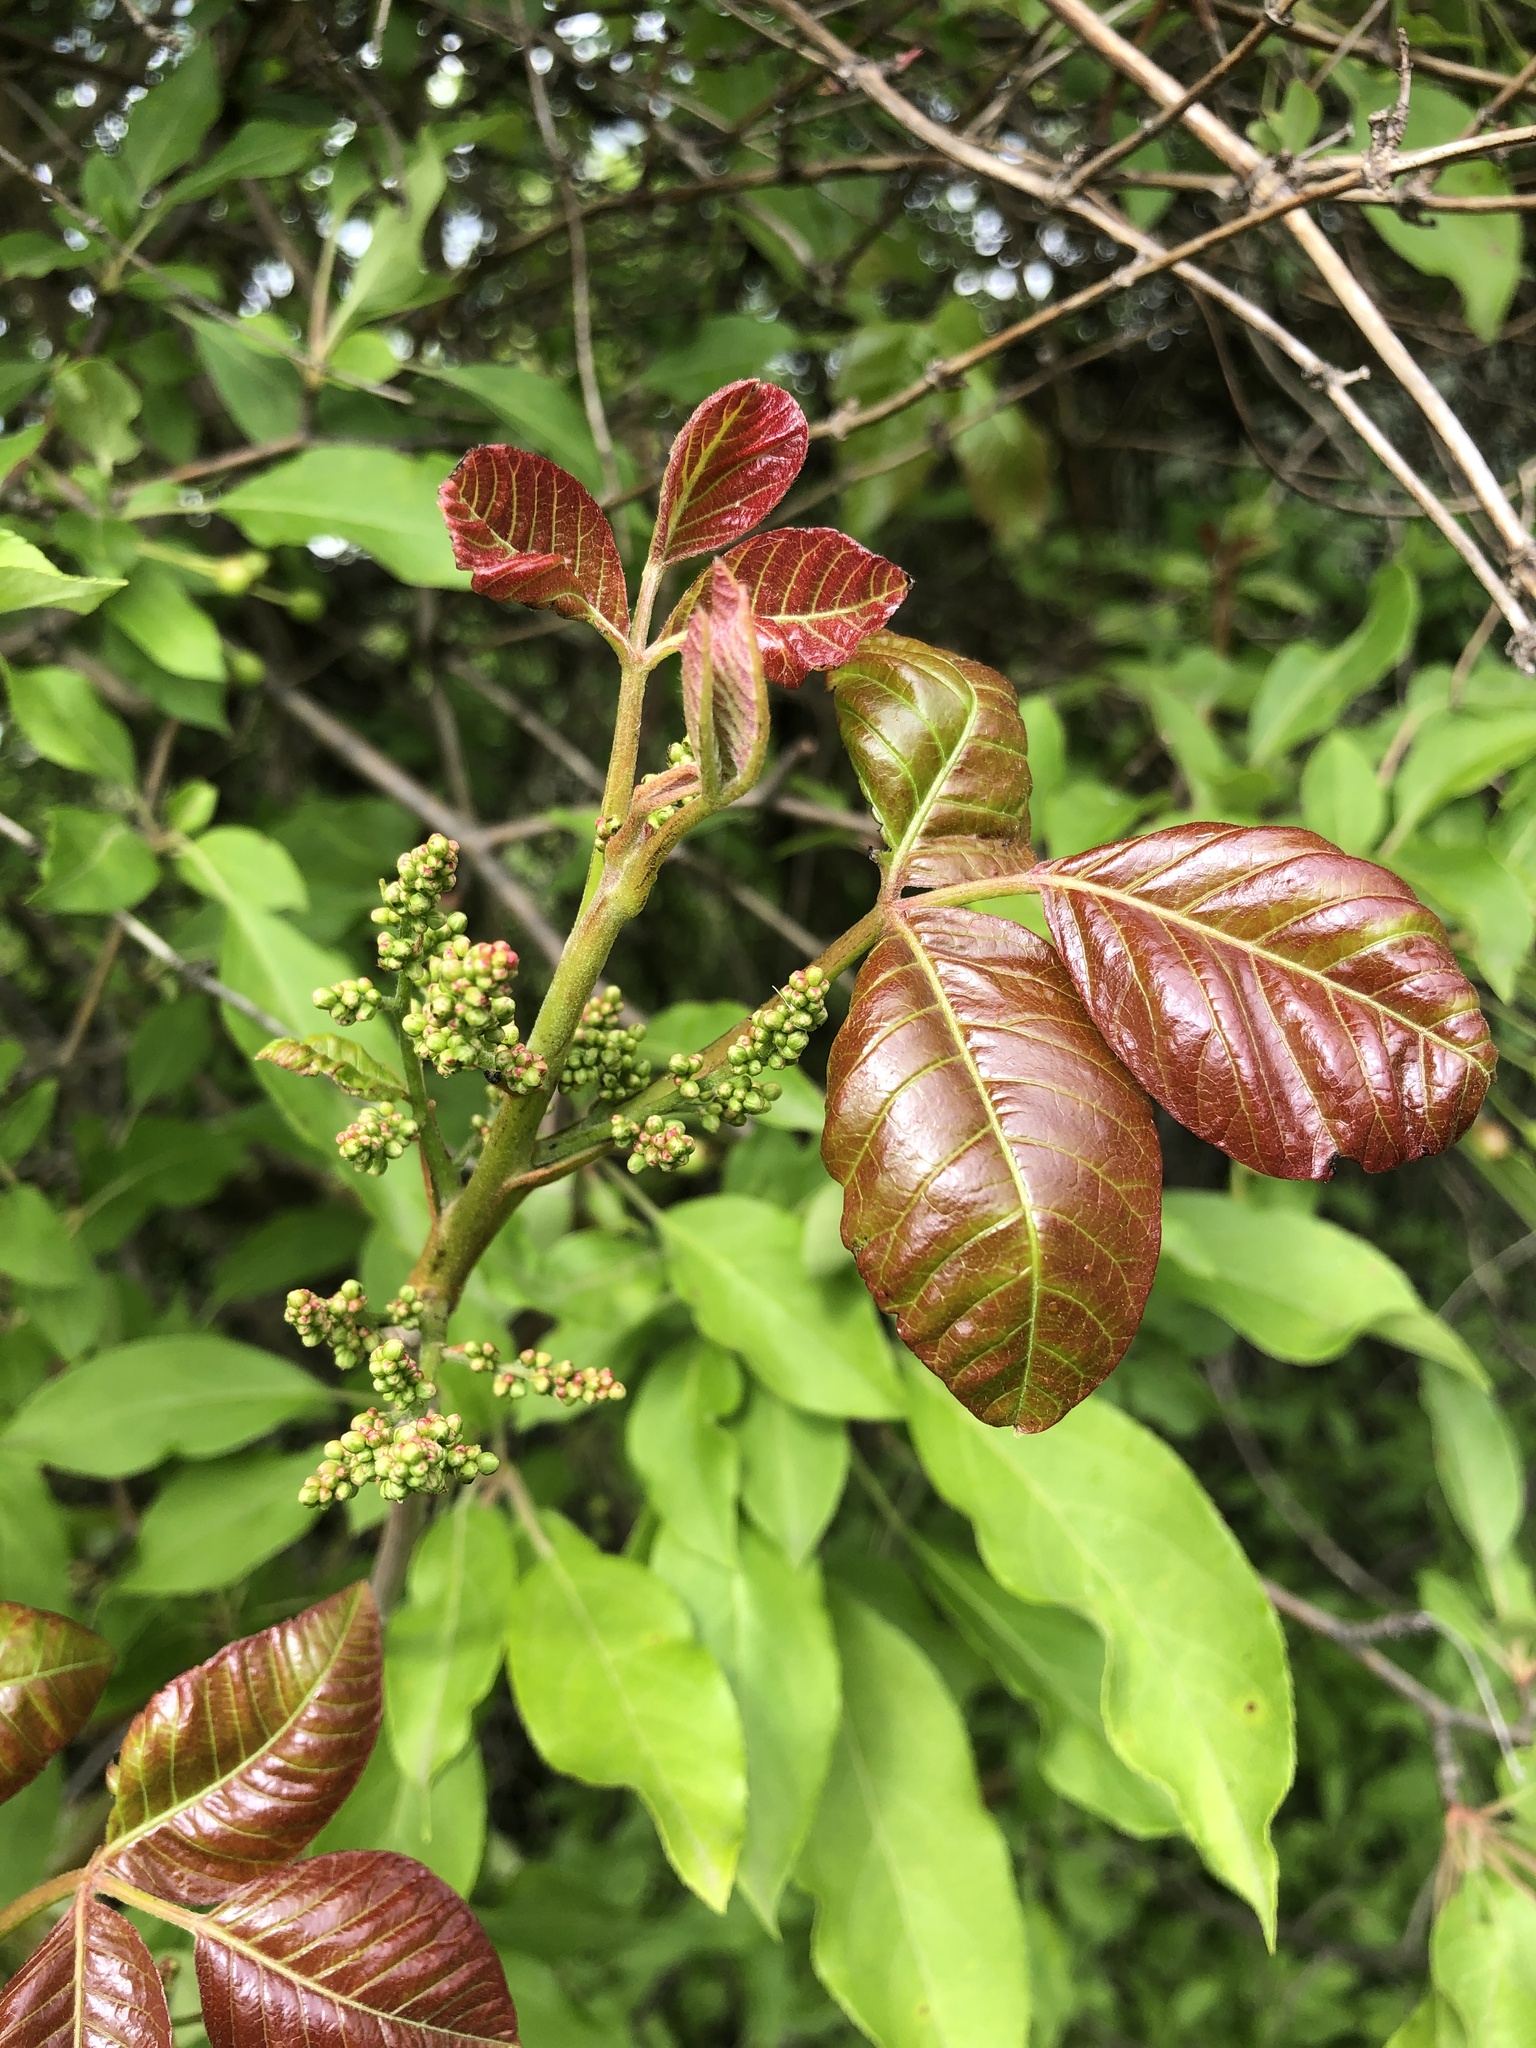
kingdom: Plantae
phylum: Tracheophyta
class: Magnoliopsida
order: Sapindales
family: Anacardiaceae
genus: Toxicodendron
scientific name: Toxicodendron radicans
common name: Poison ivy
